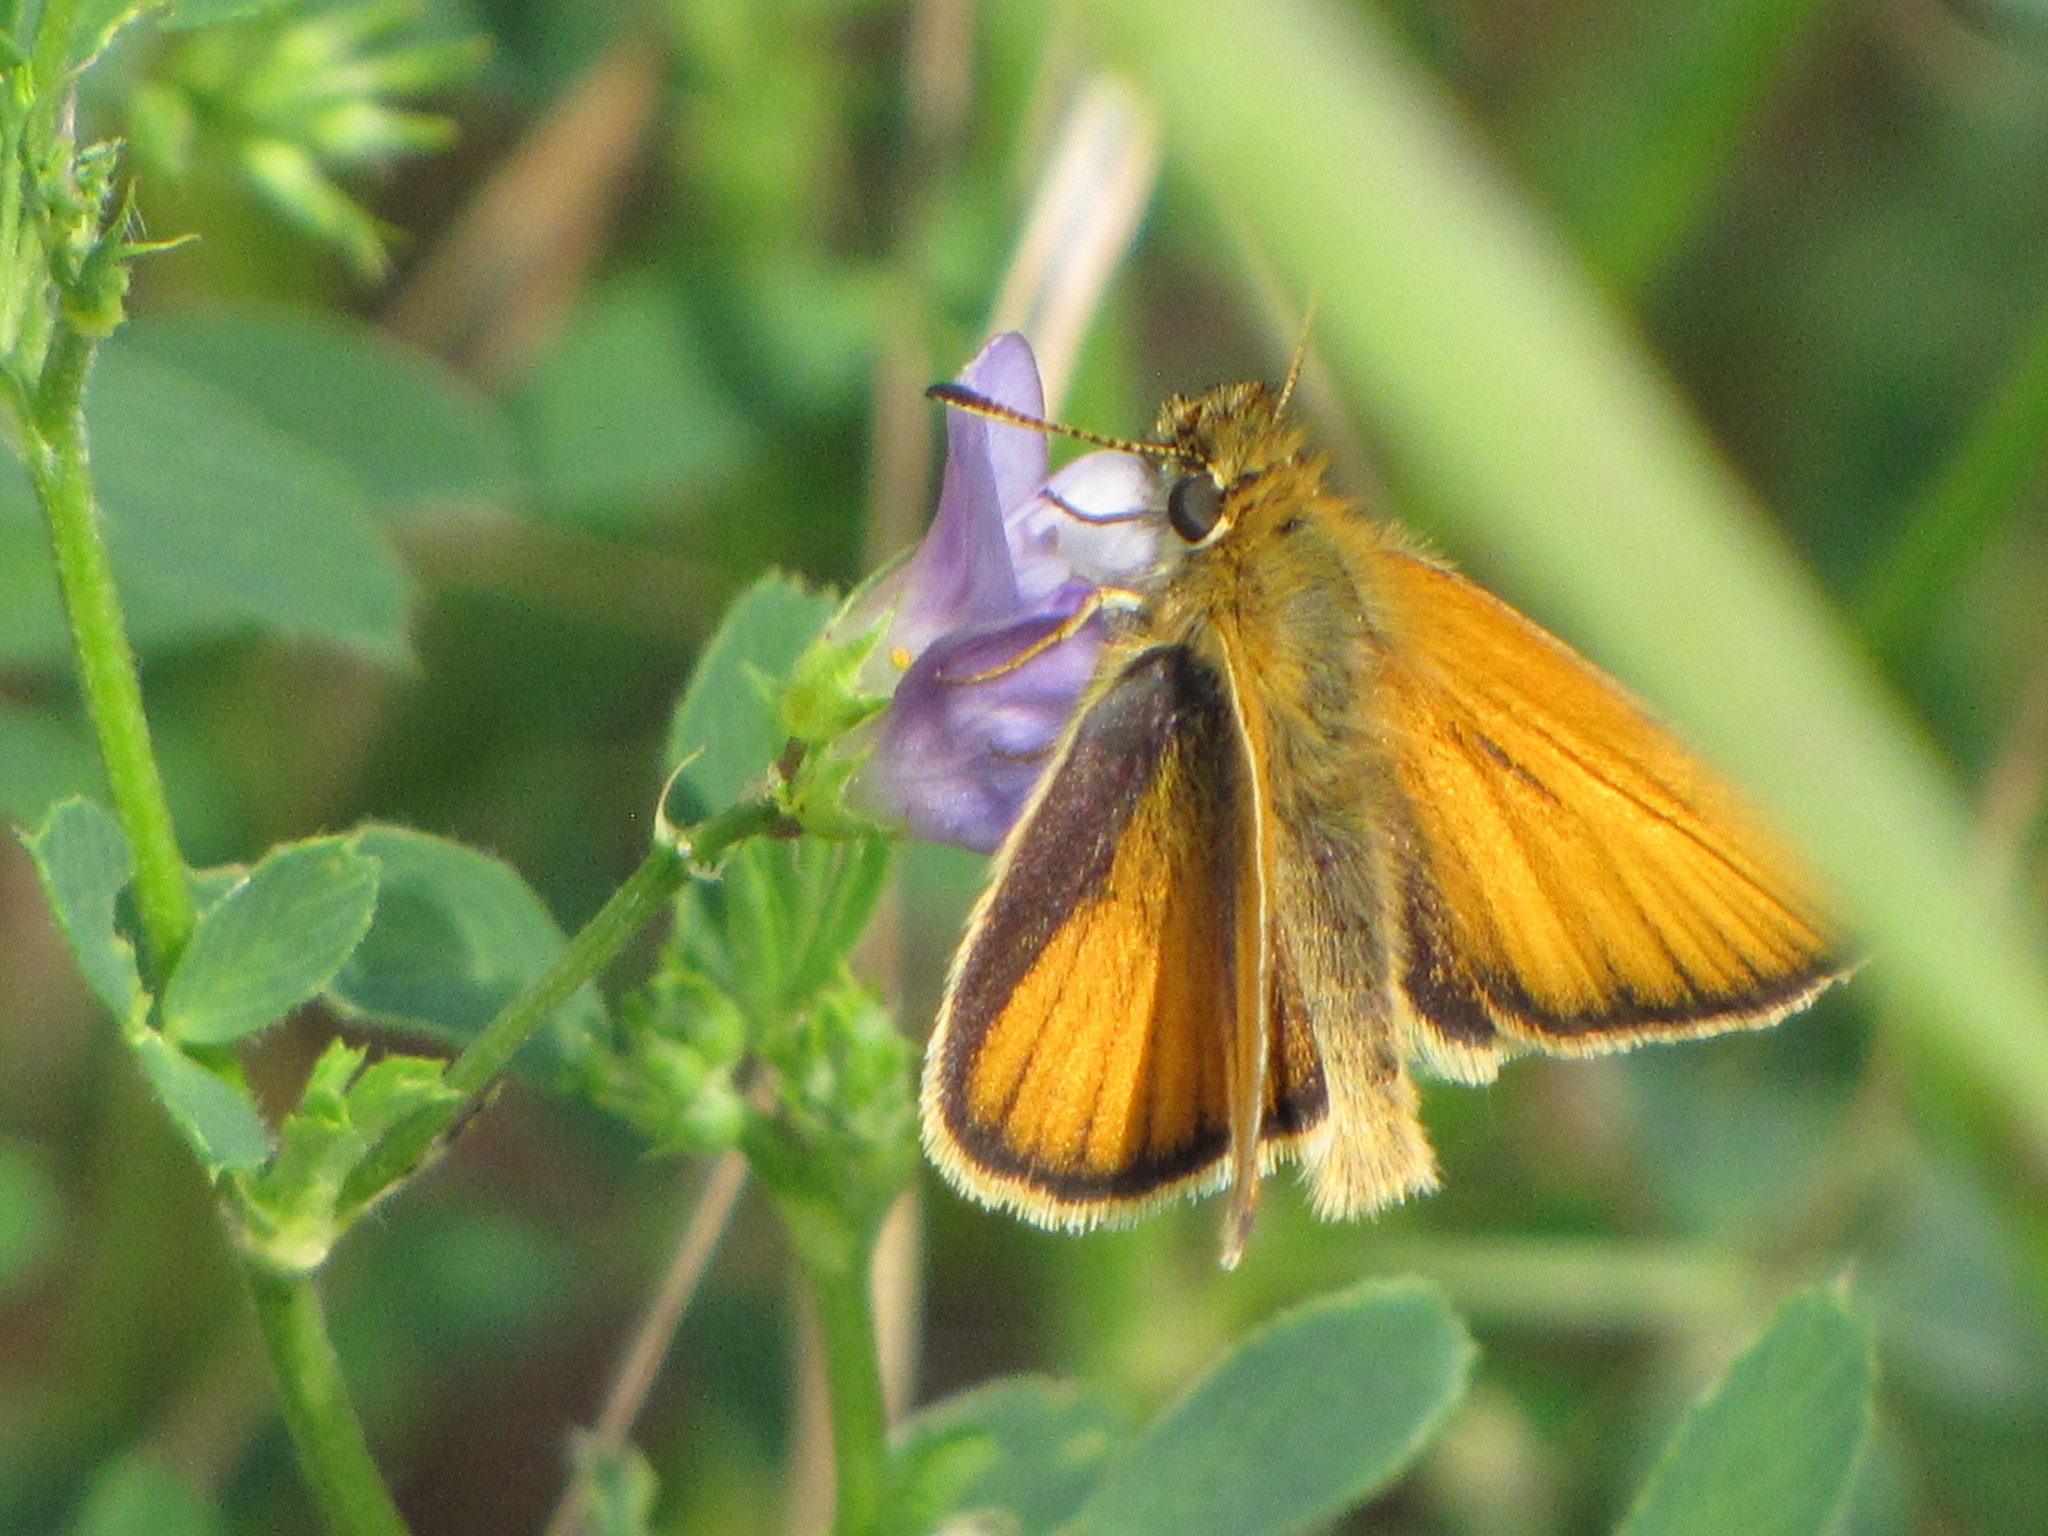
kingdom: Animalia
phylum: Arthropoda
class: Insecta
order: Lepidoptera
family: Hesperiidae
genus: Thymelicus
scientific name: Thymelicus lineola
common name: Essex skipper
